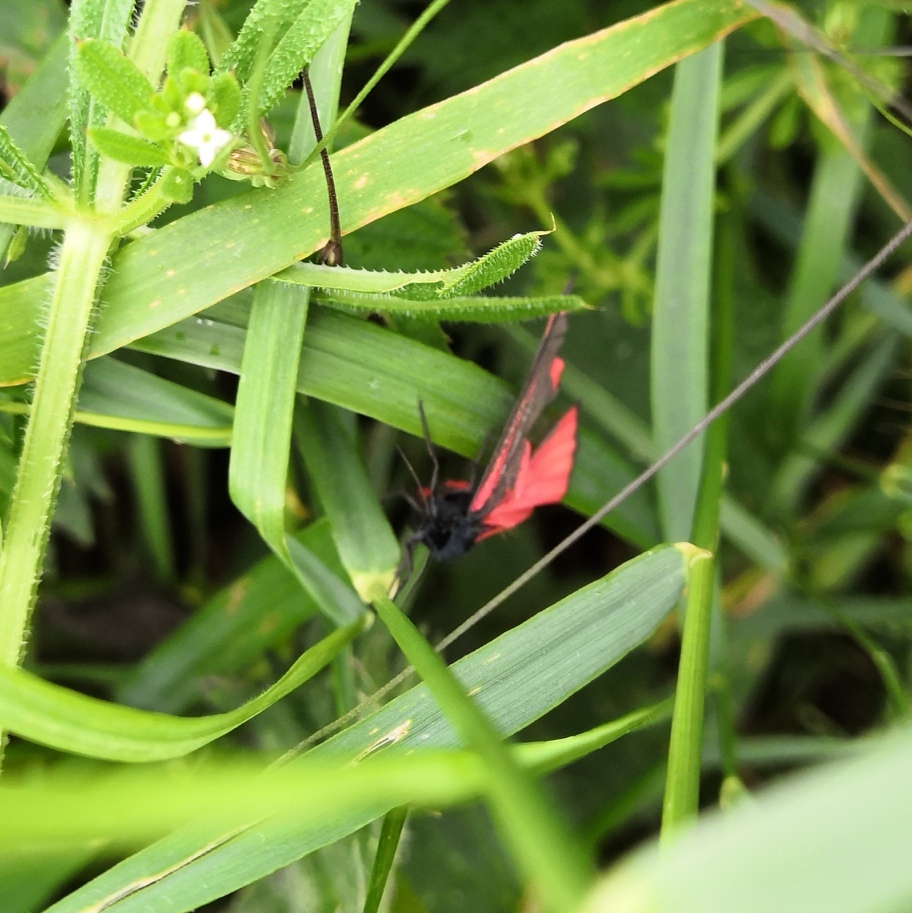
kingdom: Animalia
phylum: Arthropoda
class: Insecta
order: Lepidoptera
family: Erebidae
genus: Tyria
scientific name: Tyria jacobaeae
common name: Cinnabar
